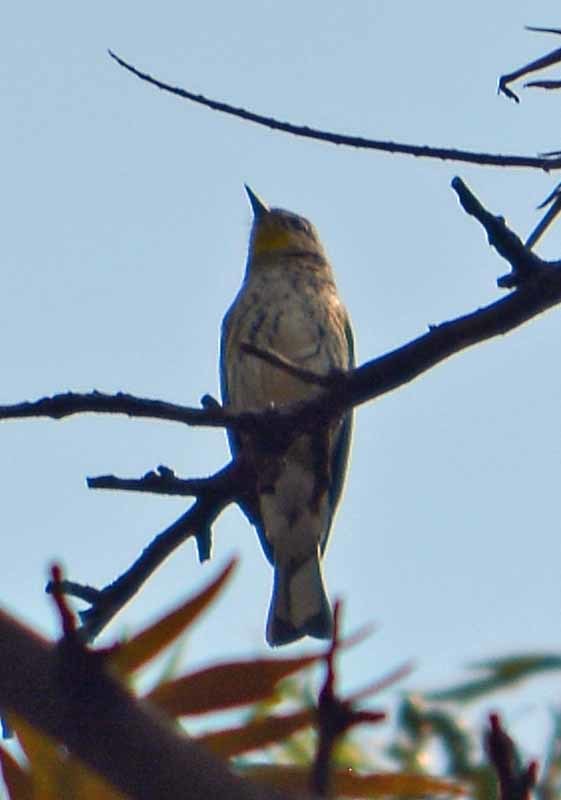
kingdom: Animalia
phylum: Chordata
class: Aves
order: Passeriformes
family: Parulidae
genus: Setophaga
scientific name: Setophaga coronata
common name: Myrtle warbler
